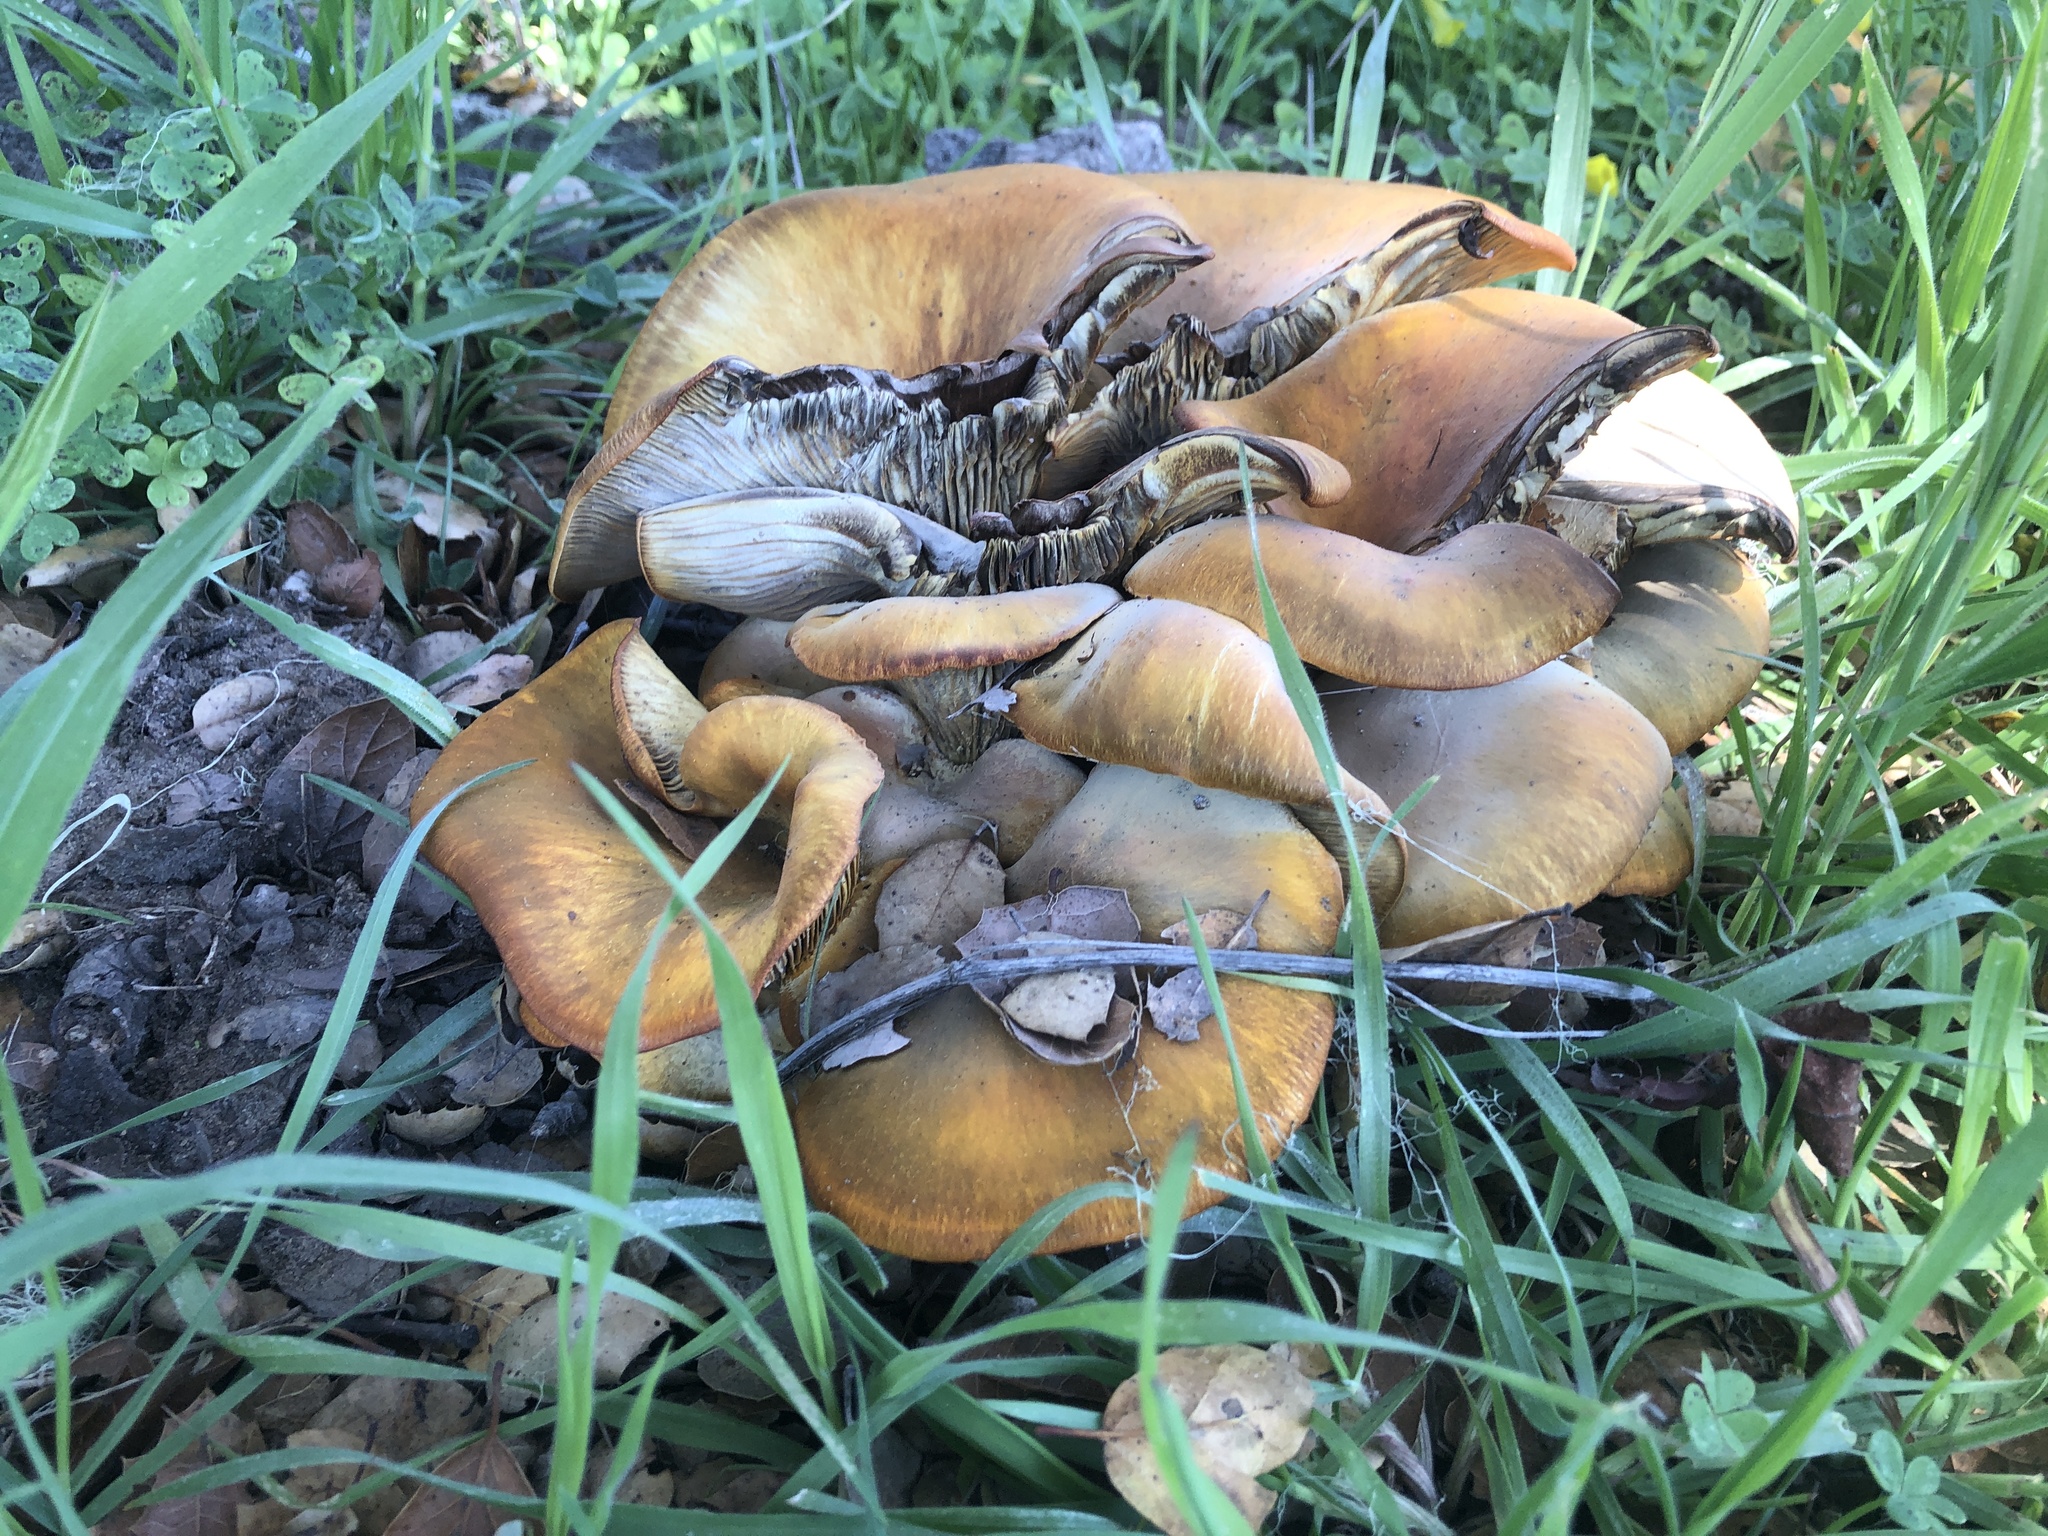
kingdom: Fungi
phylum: Basidiomycota
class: Agaricomycetes
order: Agaricales
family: Omphalotaceae
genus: Omphalotus
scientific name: Omphalotus olivascens
